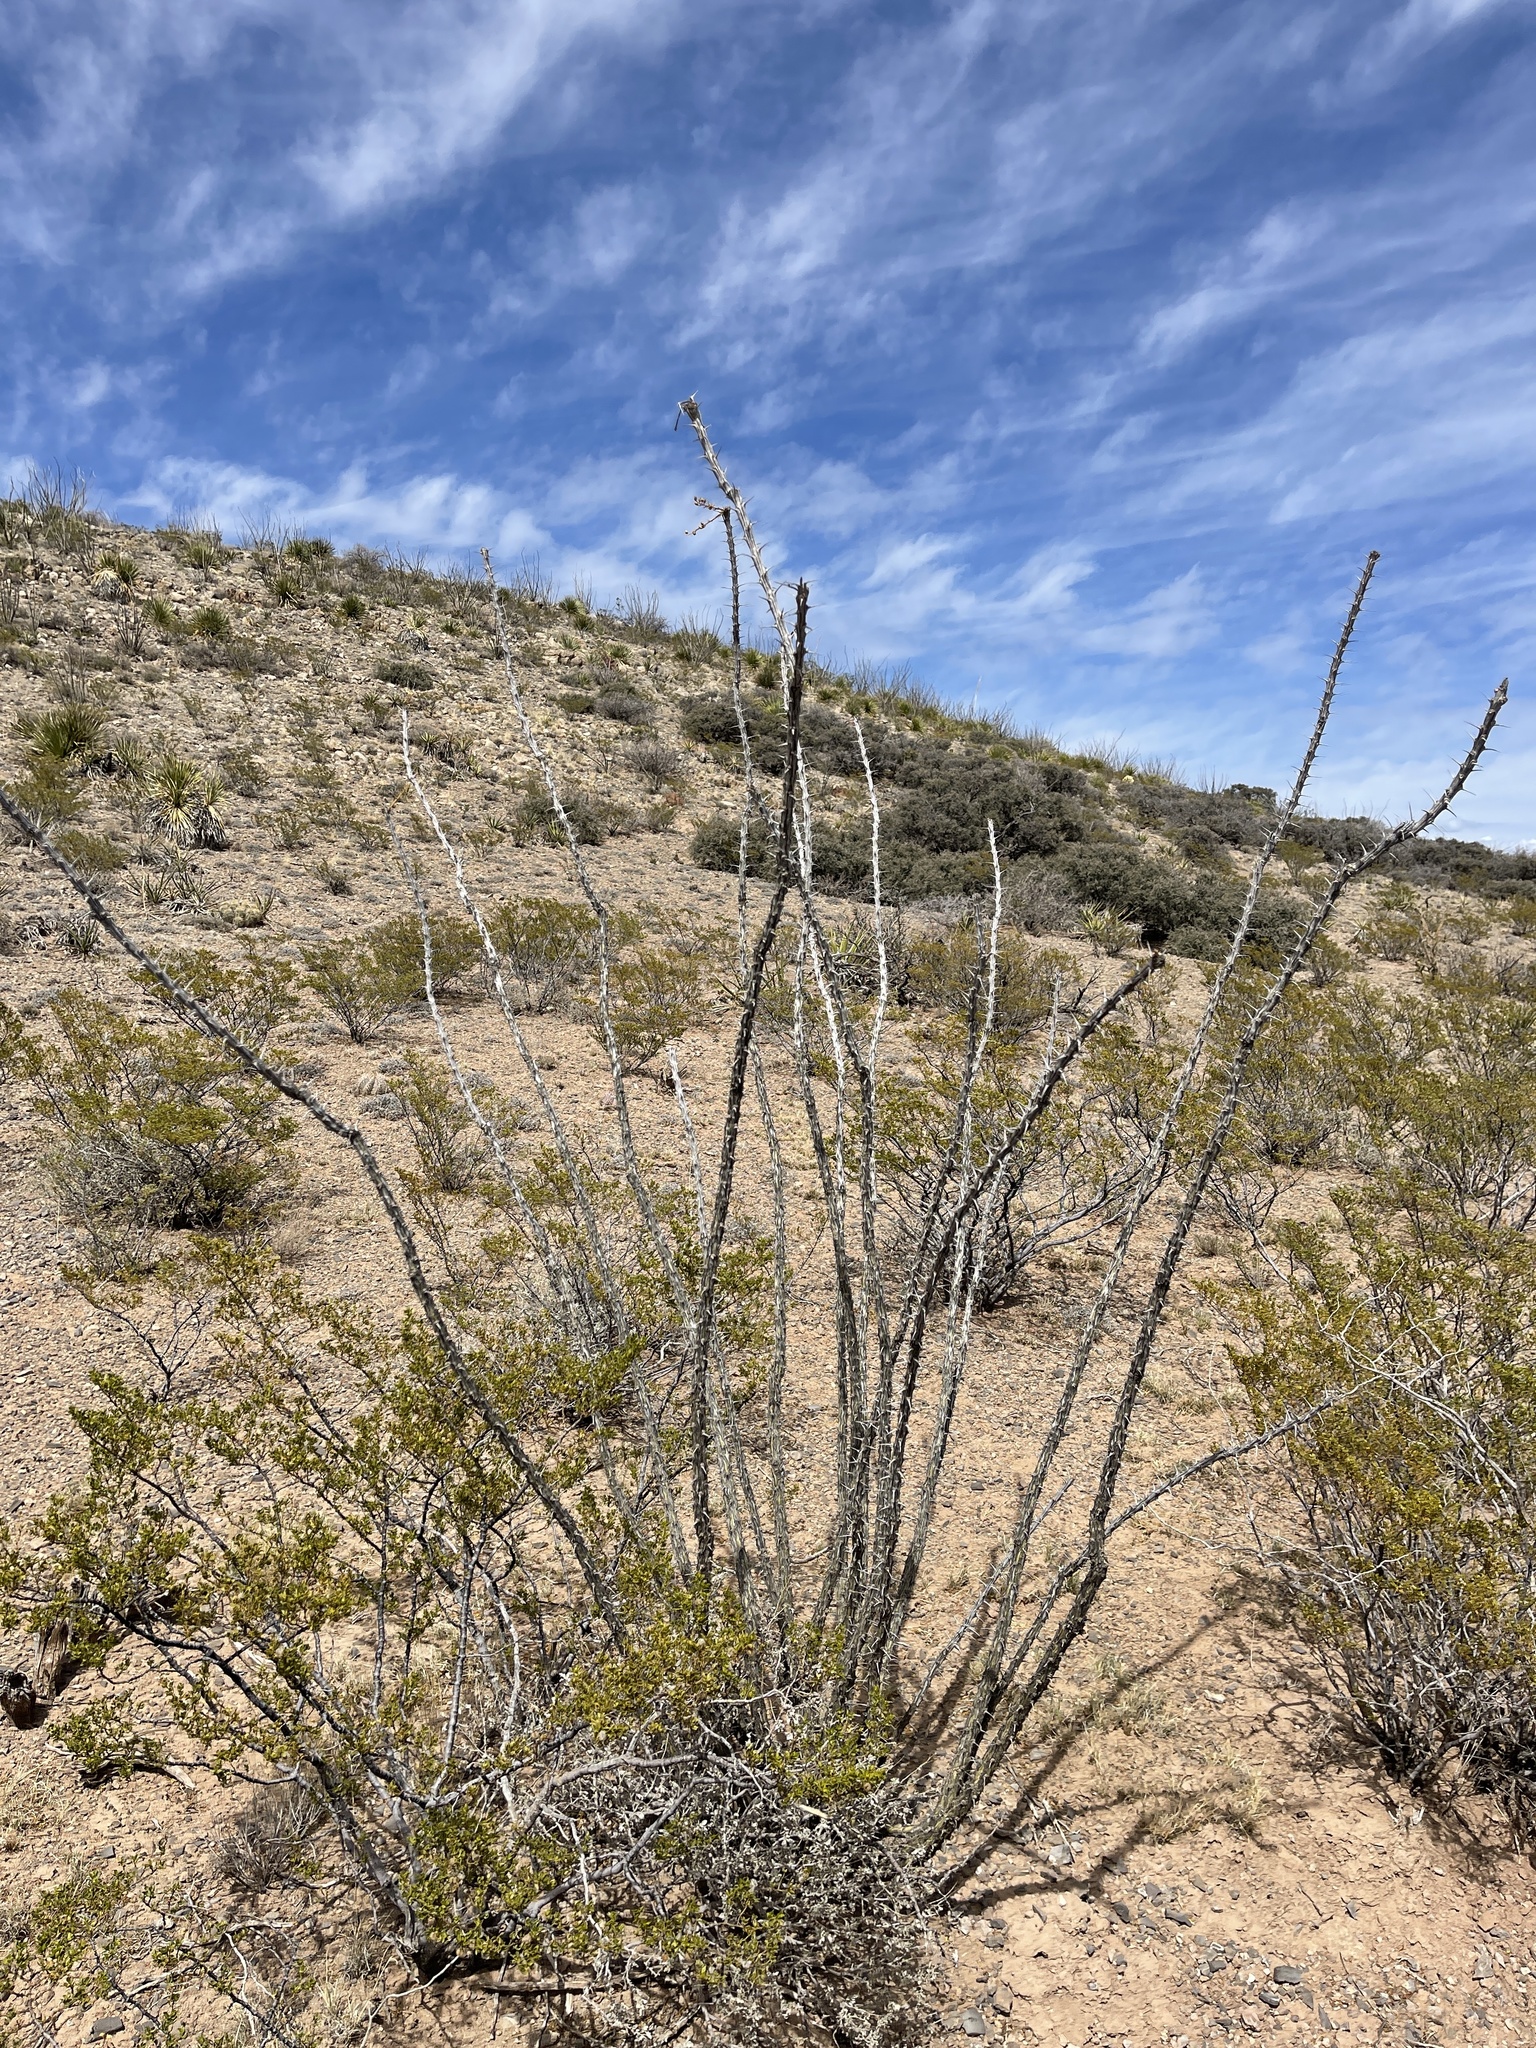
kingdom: Plantae
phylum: Tracheophyta
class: Magnoliopsida
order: Ericales
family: Fouquieriaceae
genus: Fouquieria
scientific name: Fouquieria splendens
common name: Vine-cactus
